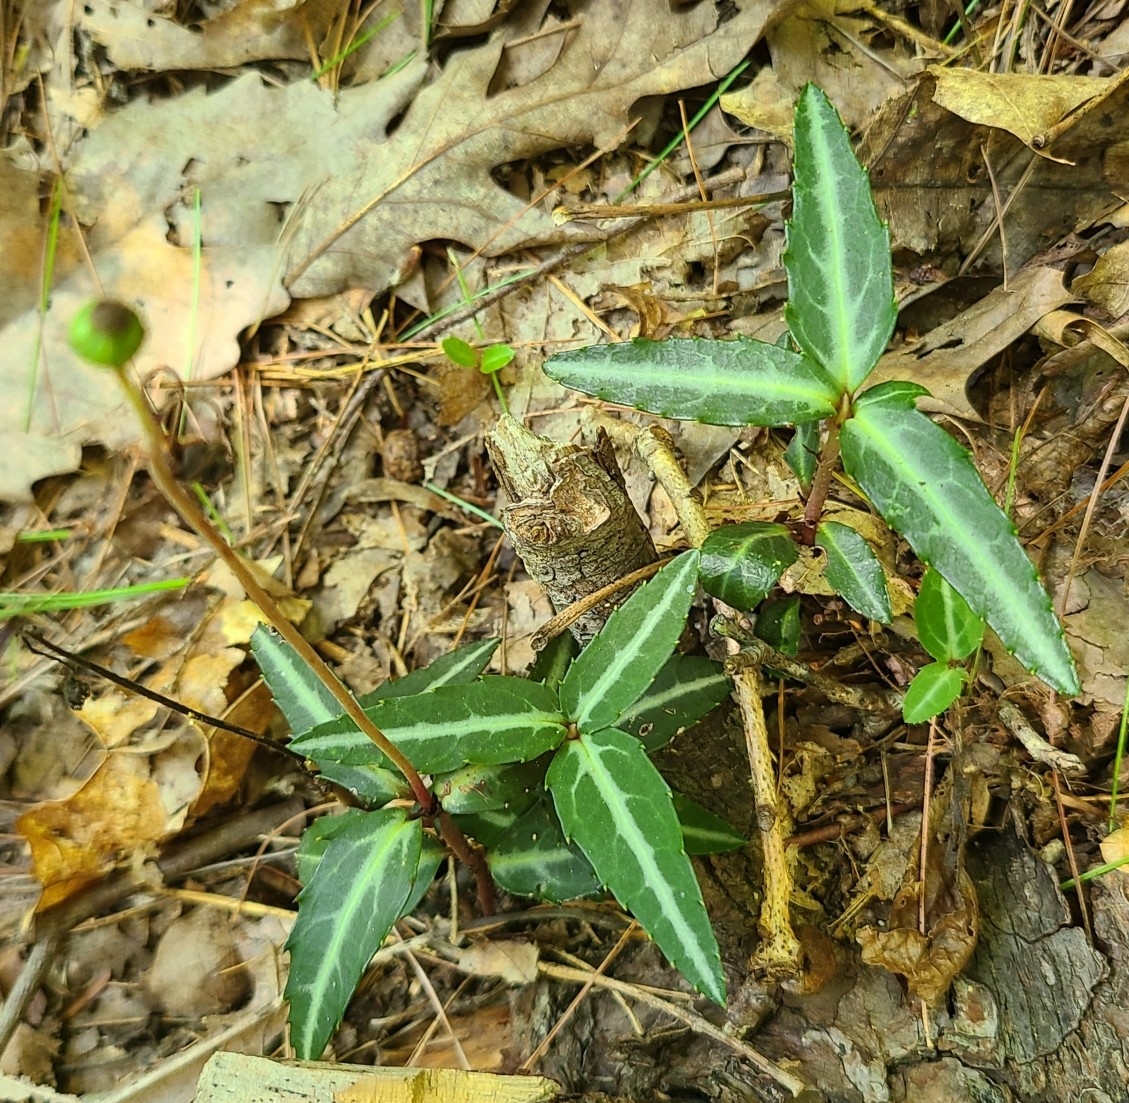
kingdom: Plantae
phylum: Tracheophyta
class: Magnoliopsida
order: Ericales
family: Ericaceae
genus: Chimaphila
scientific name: Chimaphila maculata
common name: Spotted pipsissewa
